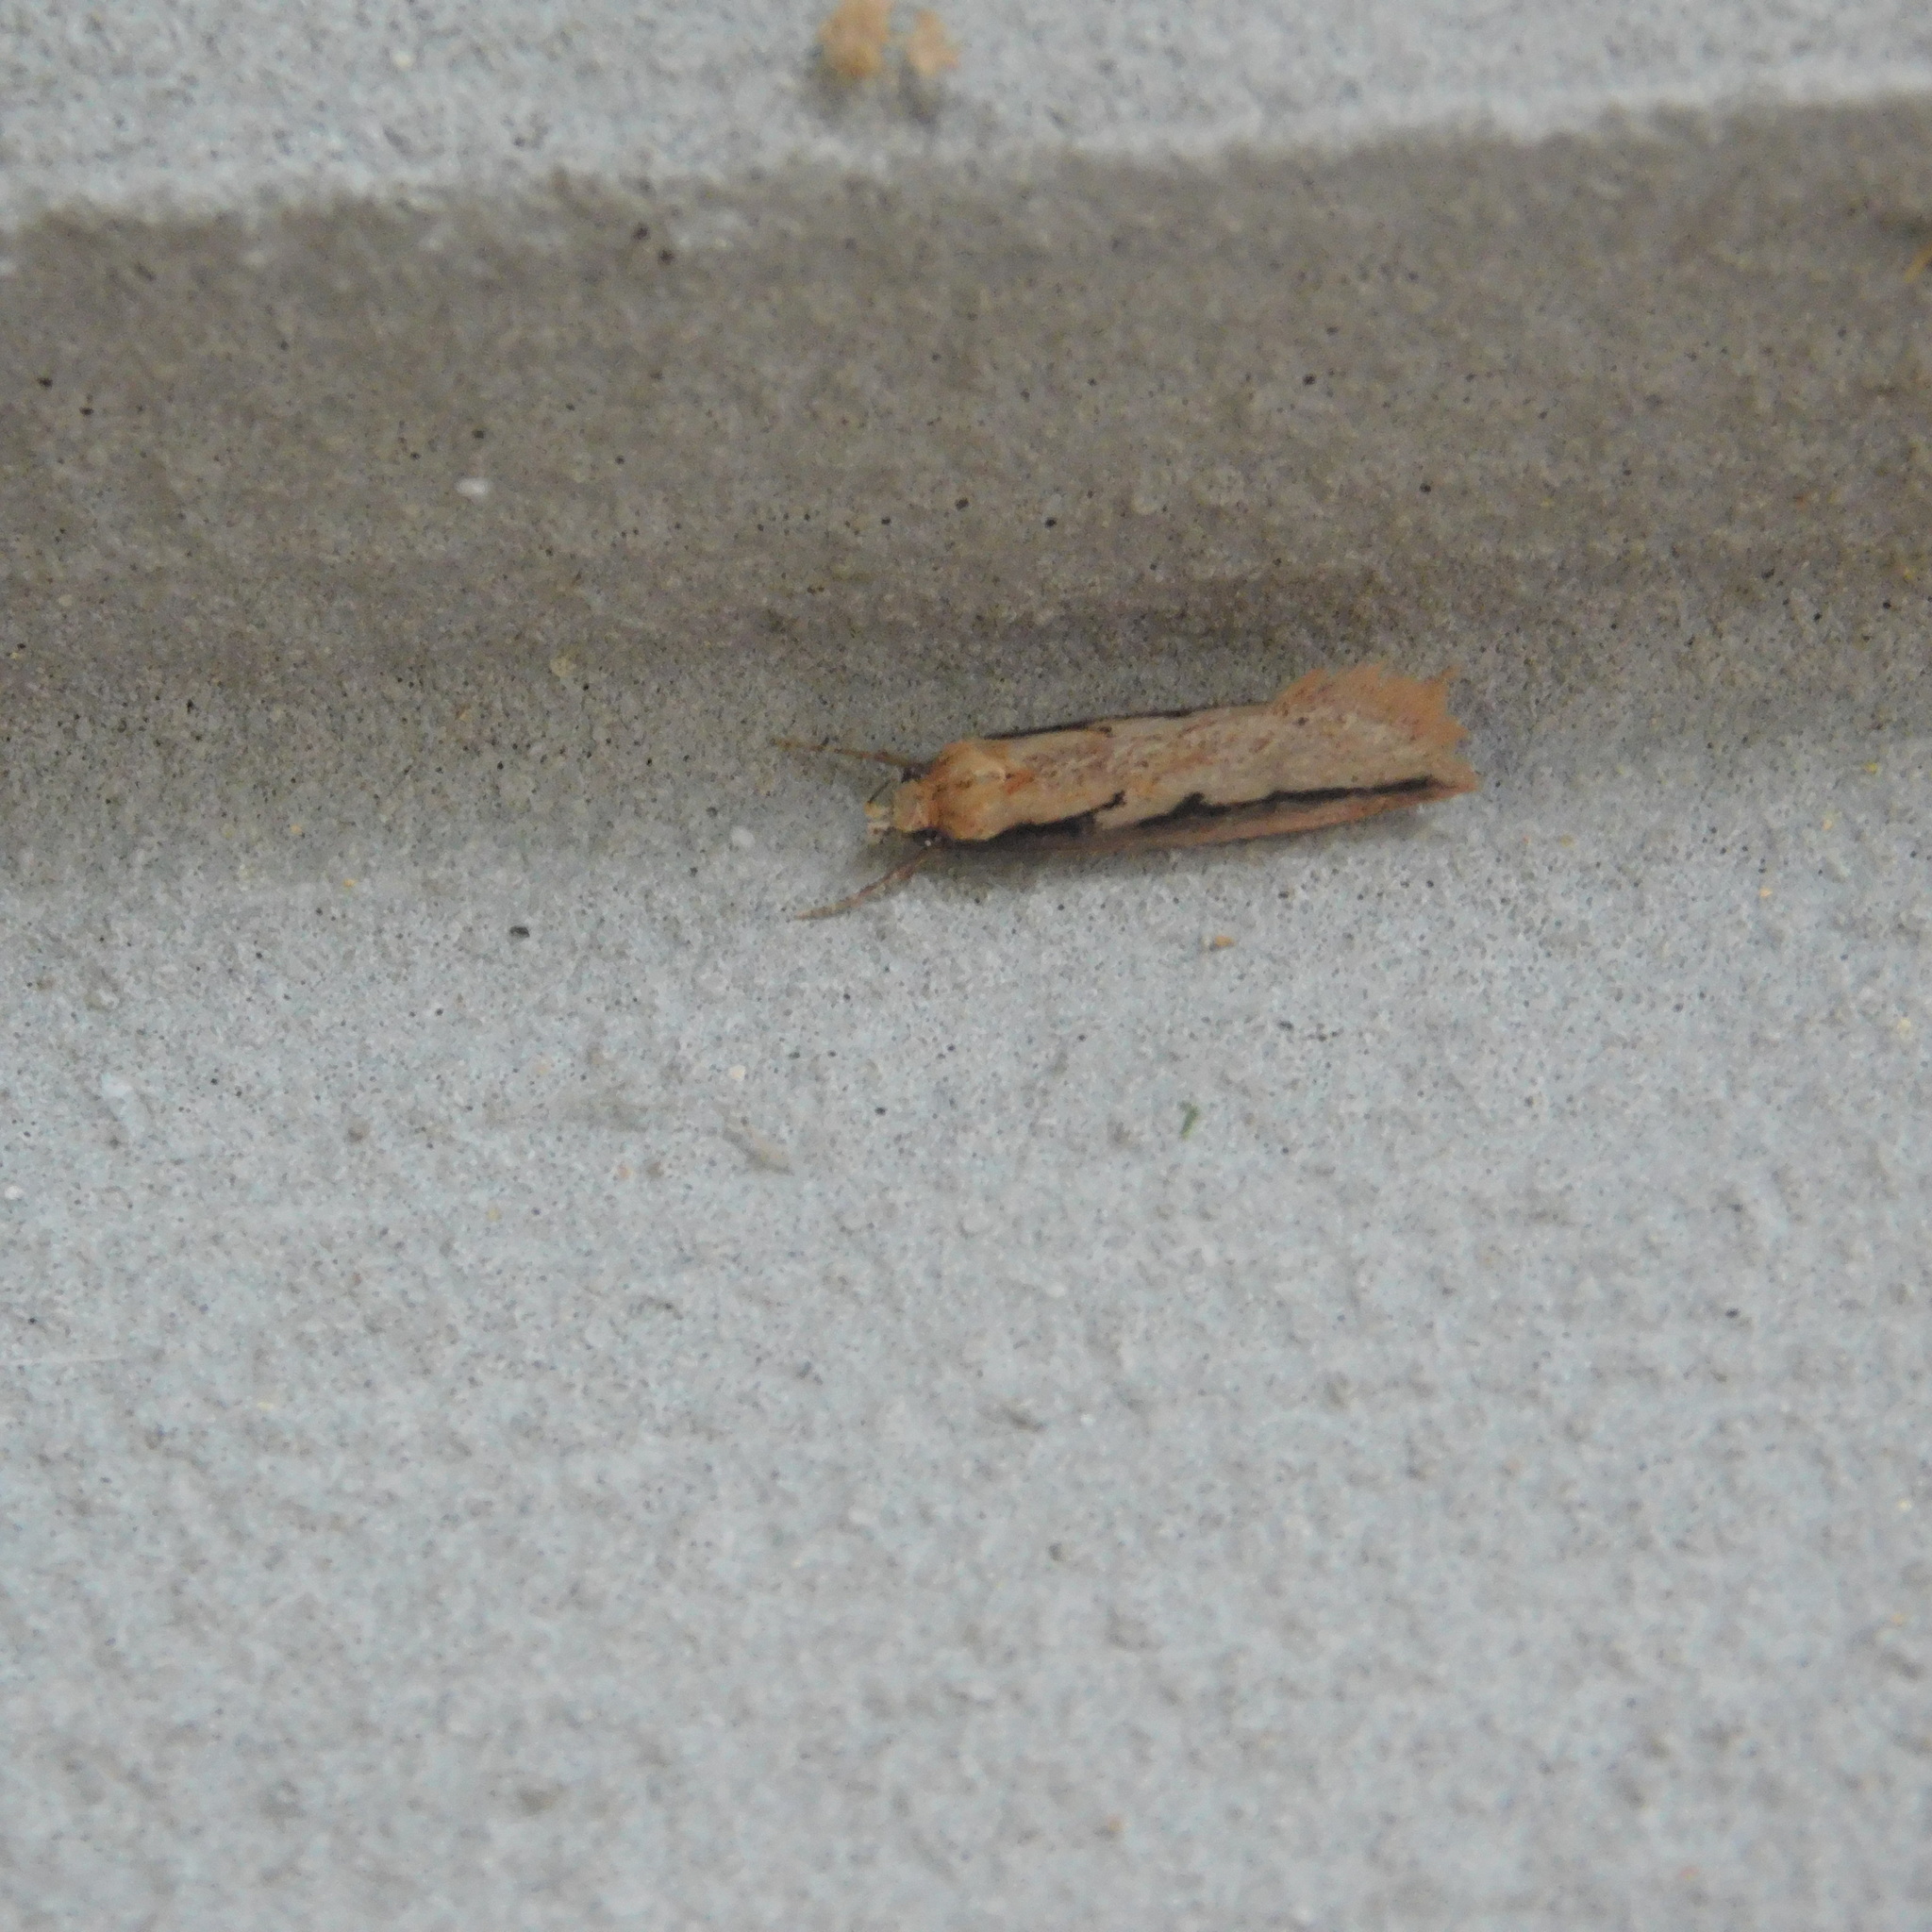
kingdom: Animalia
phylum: Arthropoda
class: Insecta
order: Lepidoptera
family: Oecophoridae
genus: Leptocroca
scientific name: Leptocroca sanguinolenta
